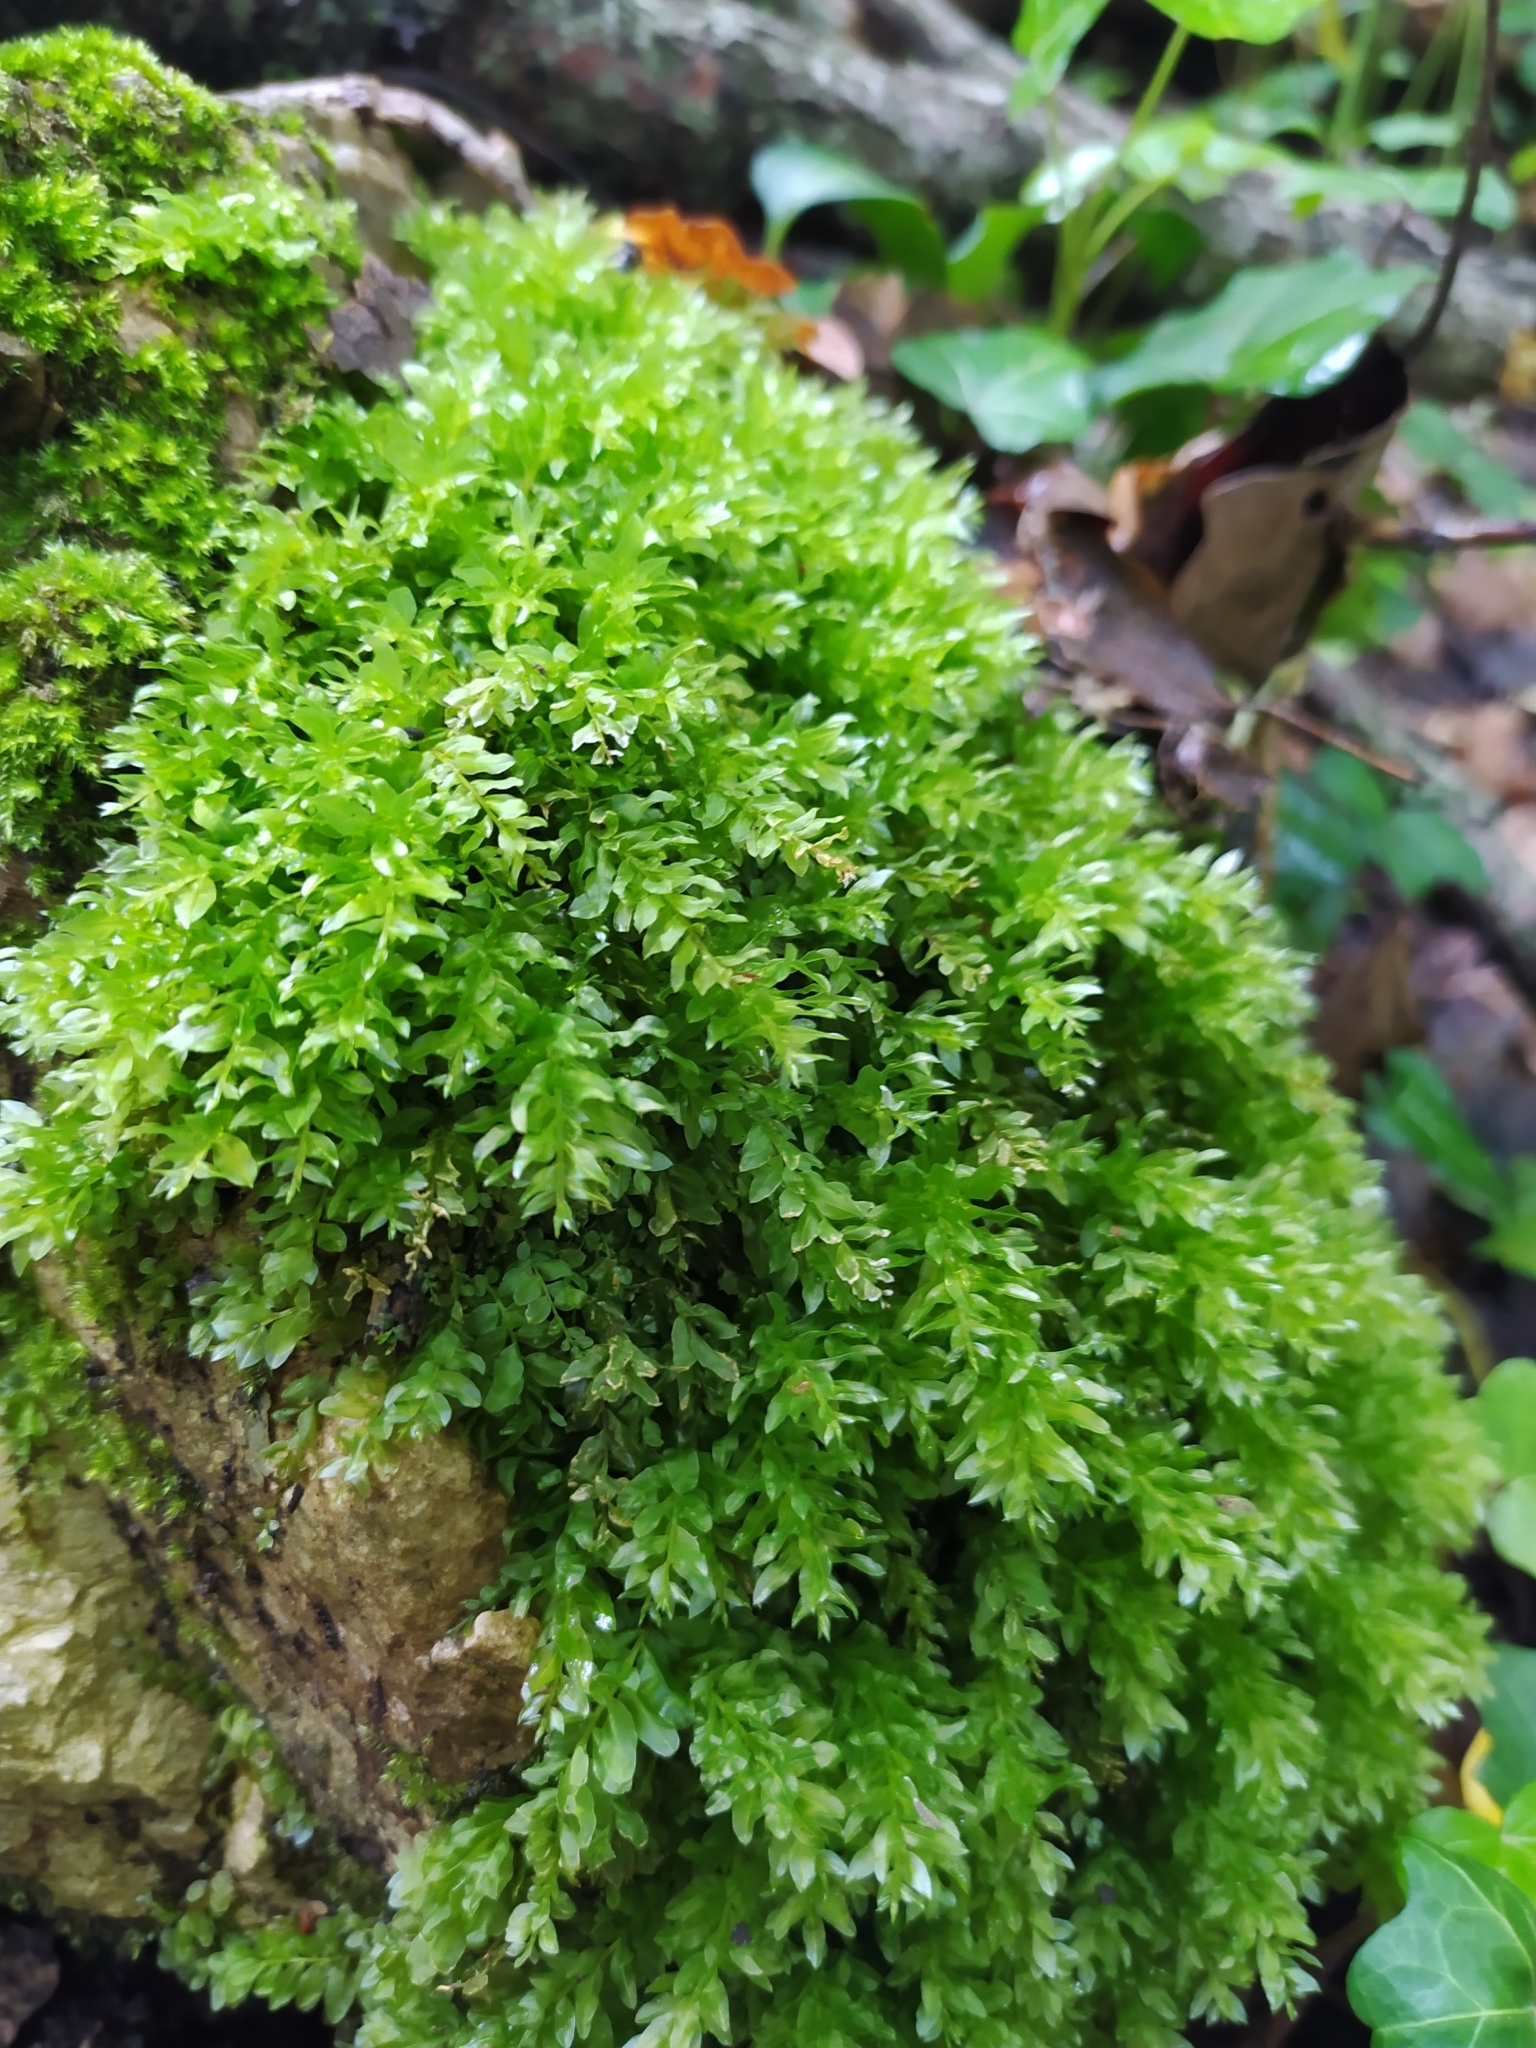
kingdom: Plantae
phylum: Bryophyta
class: Bryopsida
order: Bryales
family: Mniaceae
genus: Plagiomnium
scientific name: Plagiomnium undulatum
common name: Hart's-tongue thyme-moss
